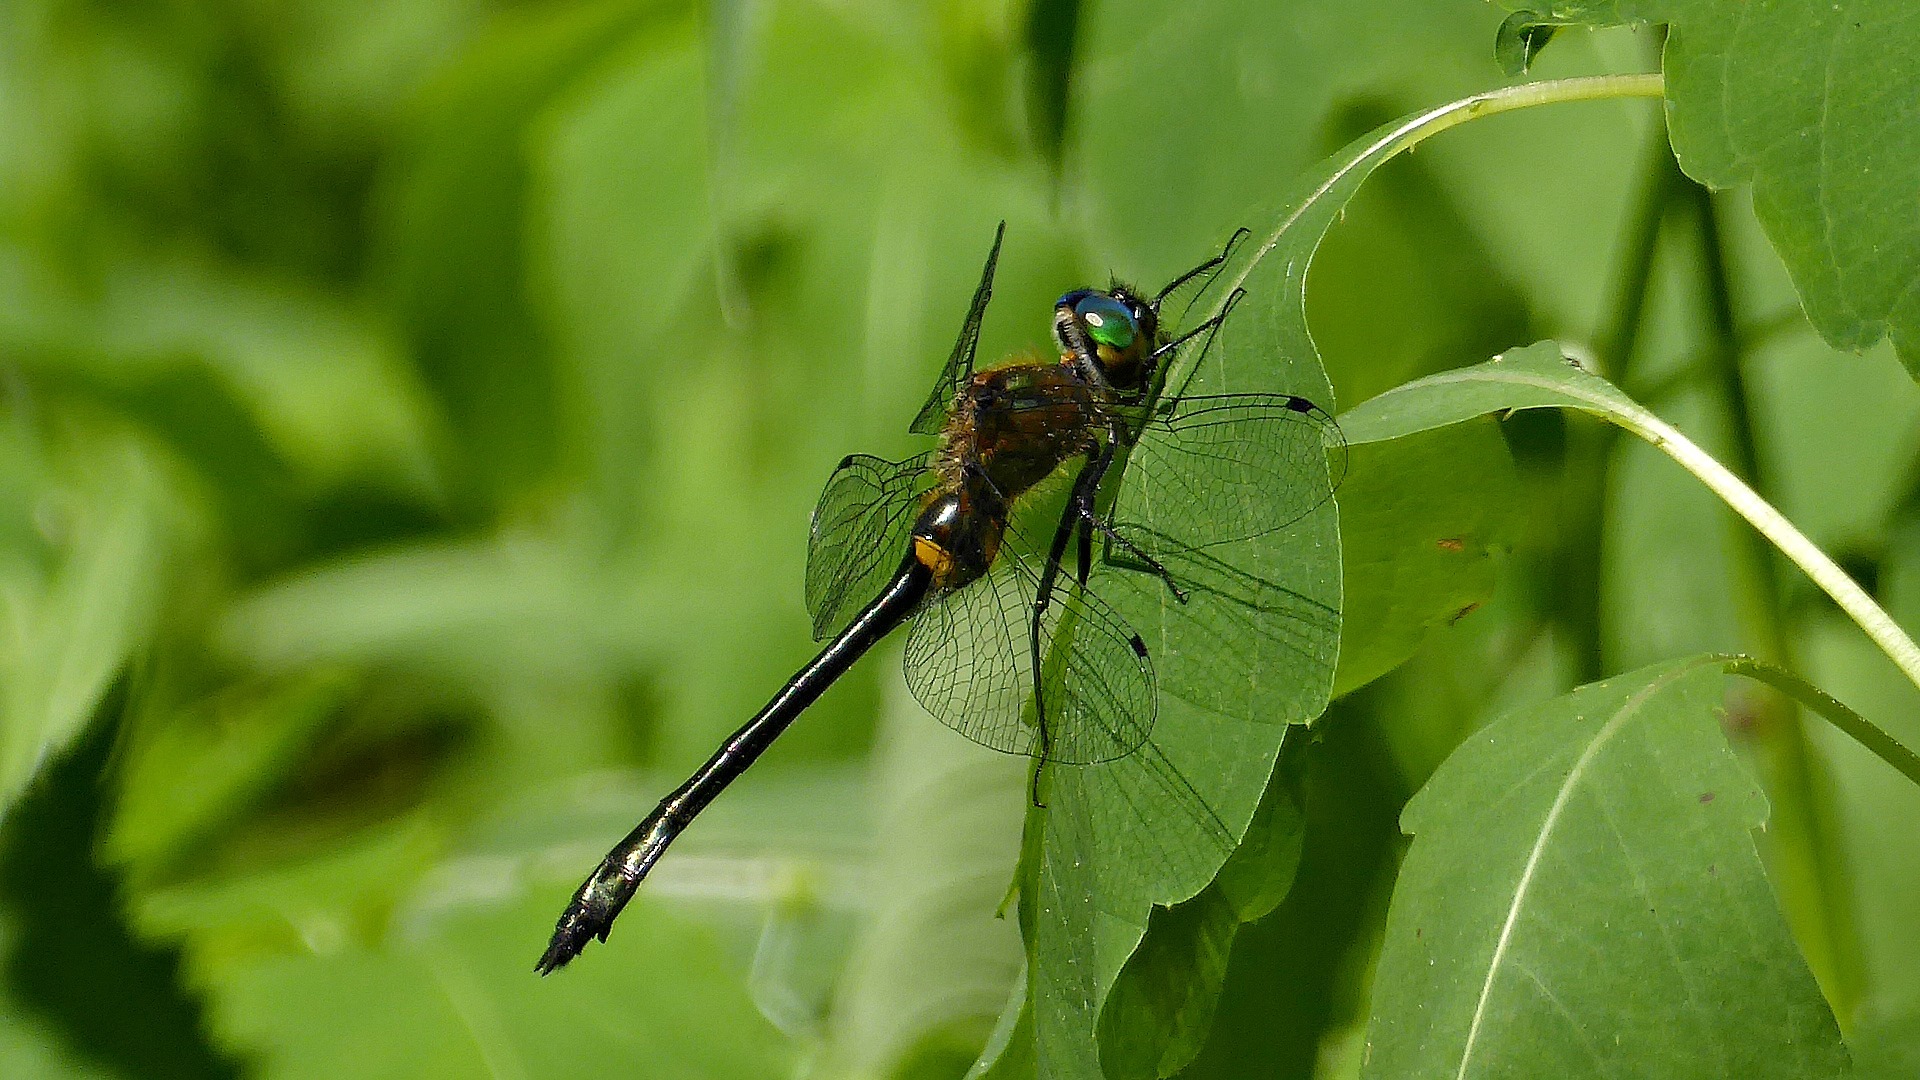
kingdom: Animalia
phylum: Arthropoda
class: Insecta
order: Odonata
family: Corduliidae
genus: Dorocordulia
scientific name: Dorocordulia libera
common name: Racket-tailed emerald
